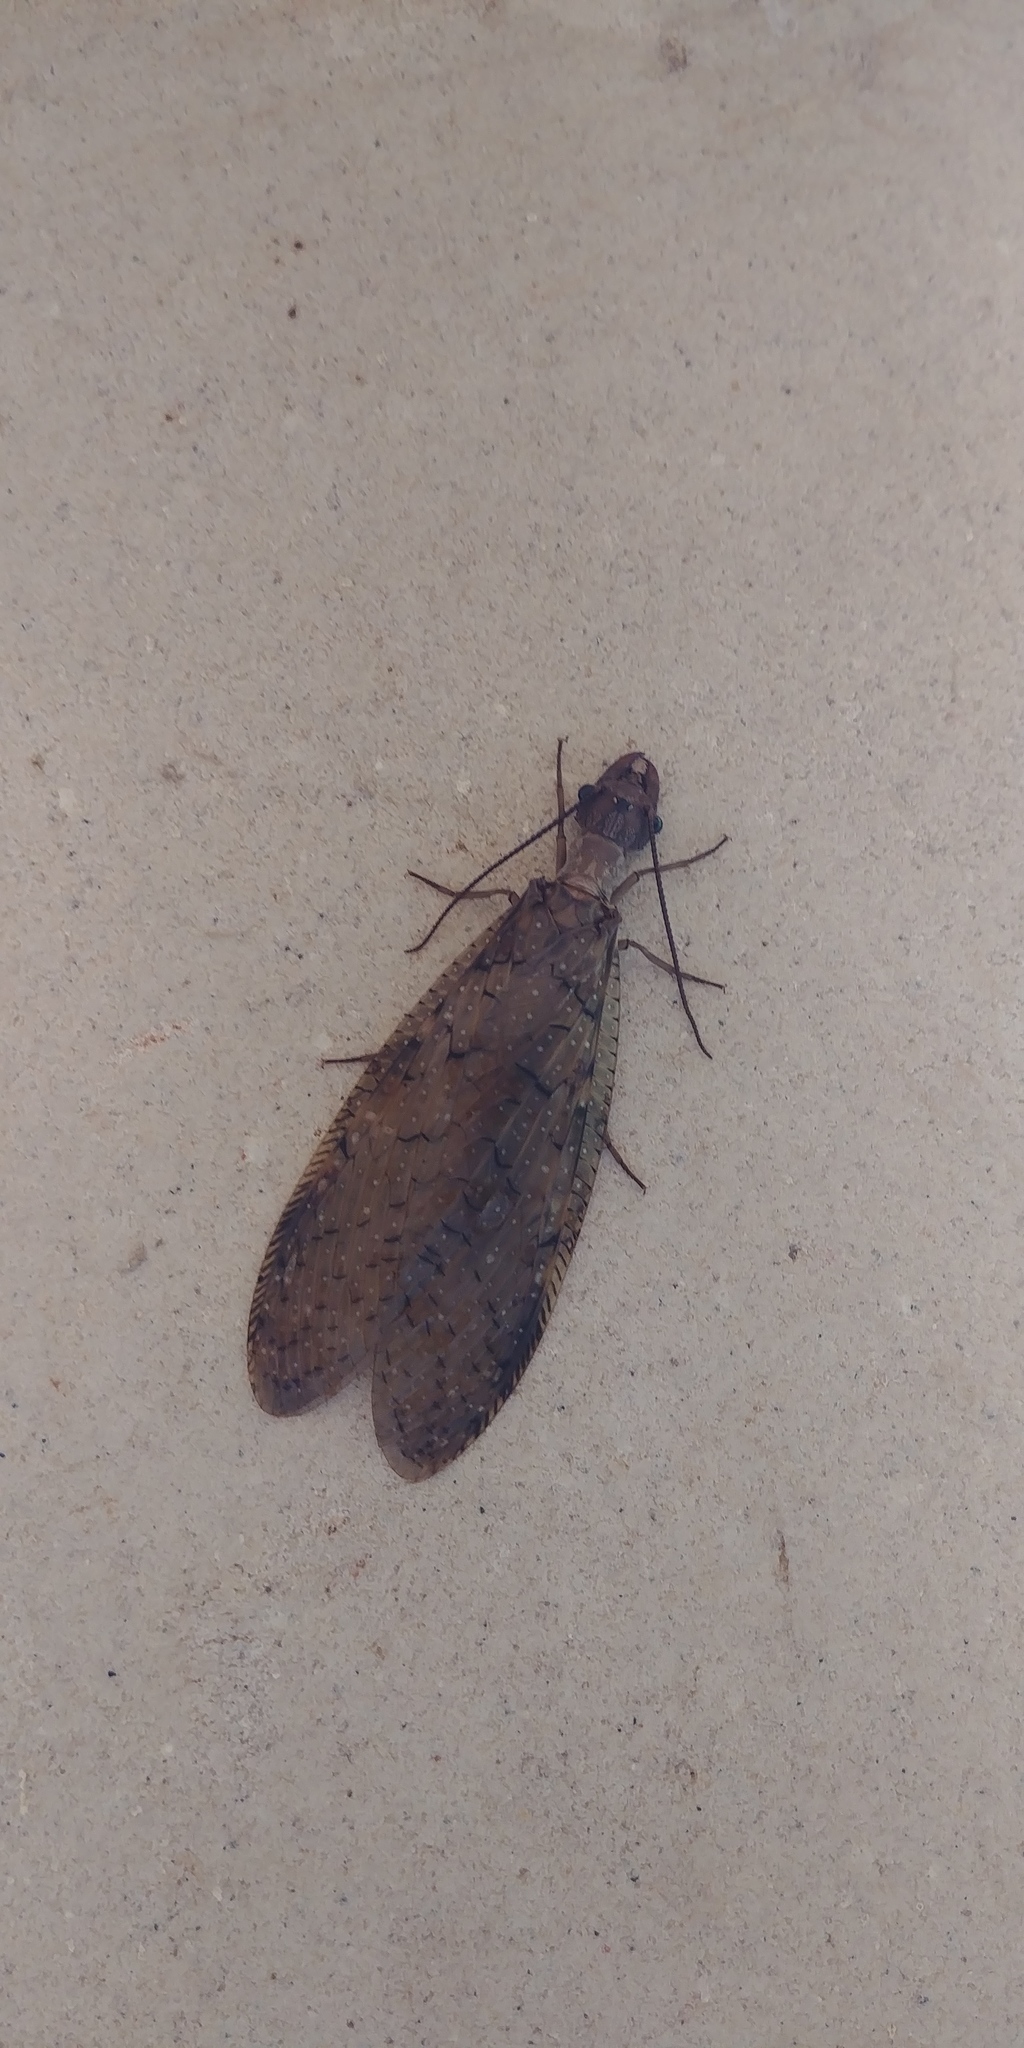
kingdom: Animalia
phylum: Arthropoda
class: Insecta
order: Megaloptera
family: Corydalidae
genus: Corydalus
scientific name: Corydalus cornutus
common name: Dobsonfly
